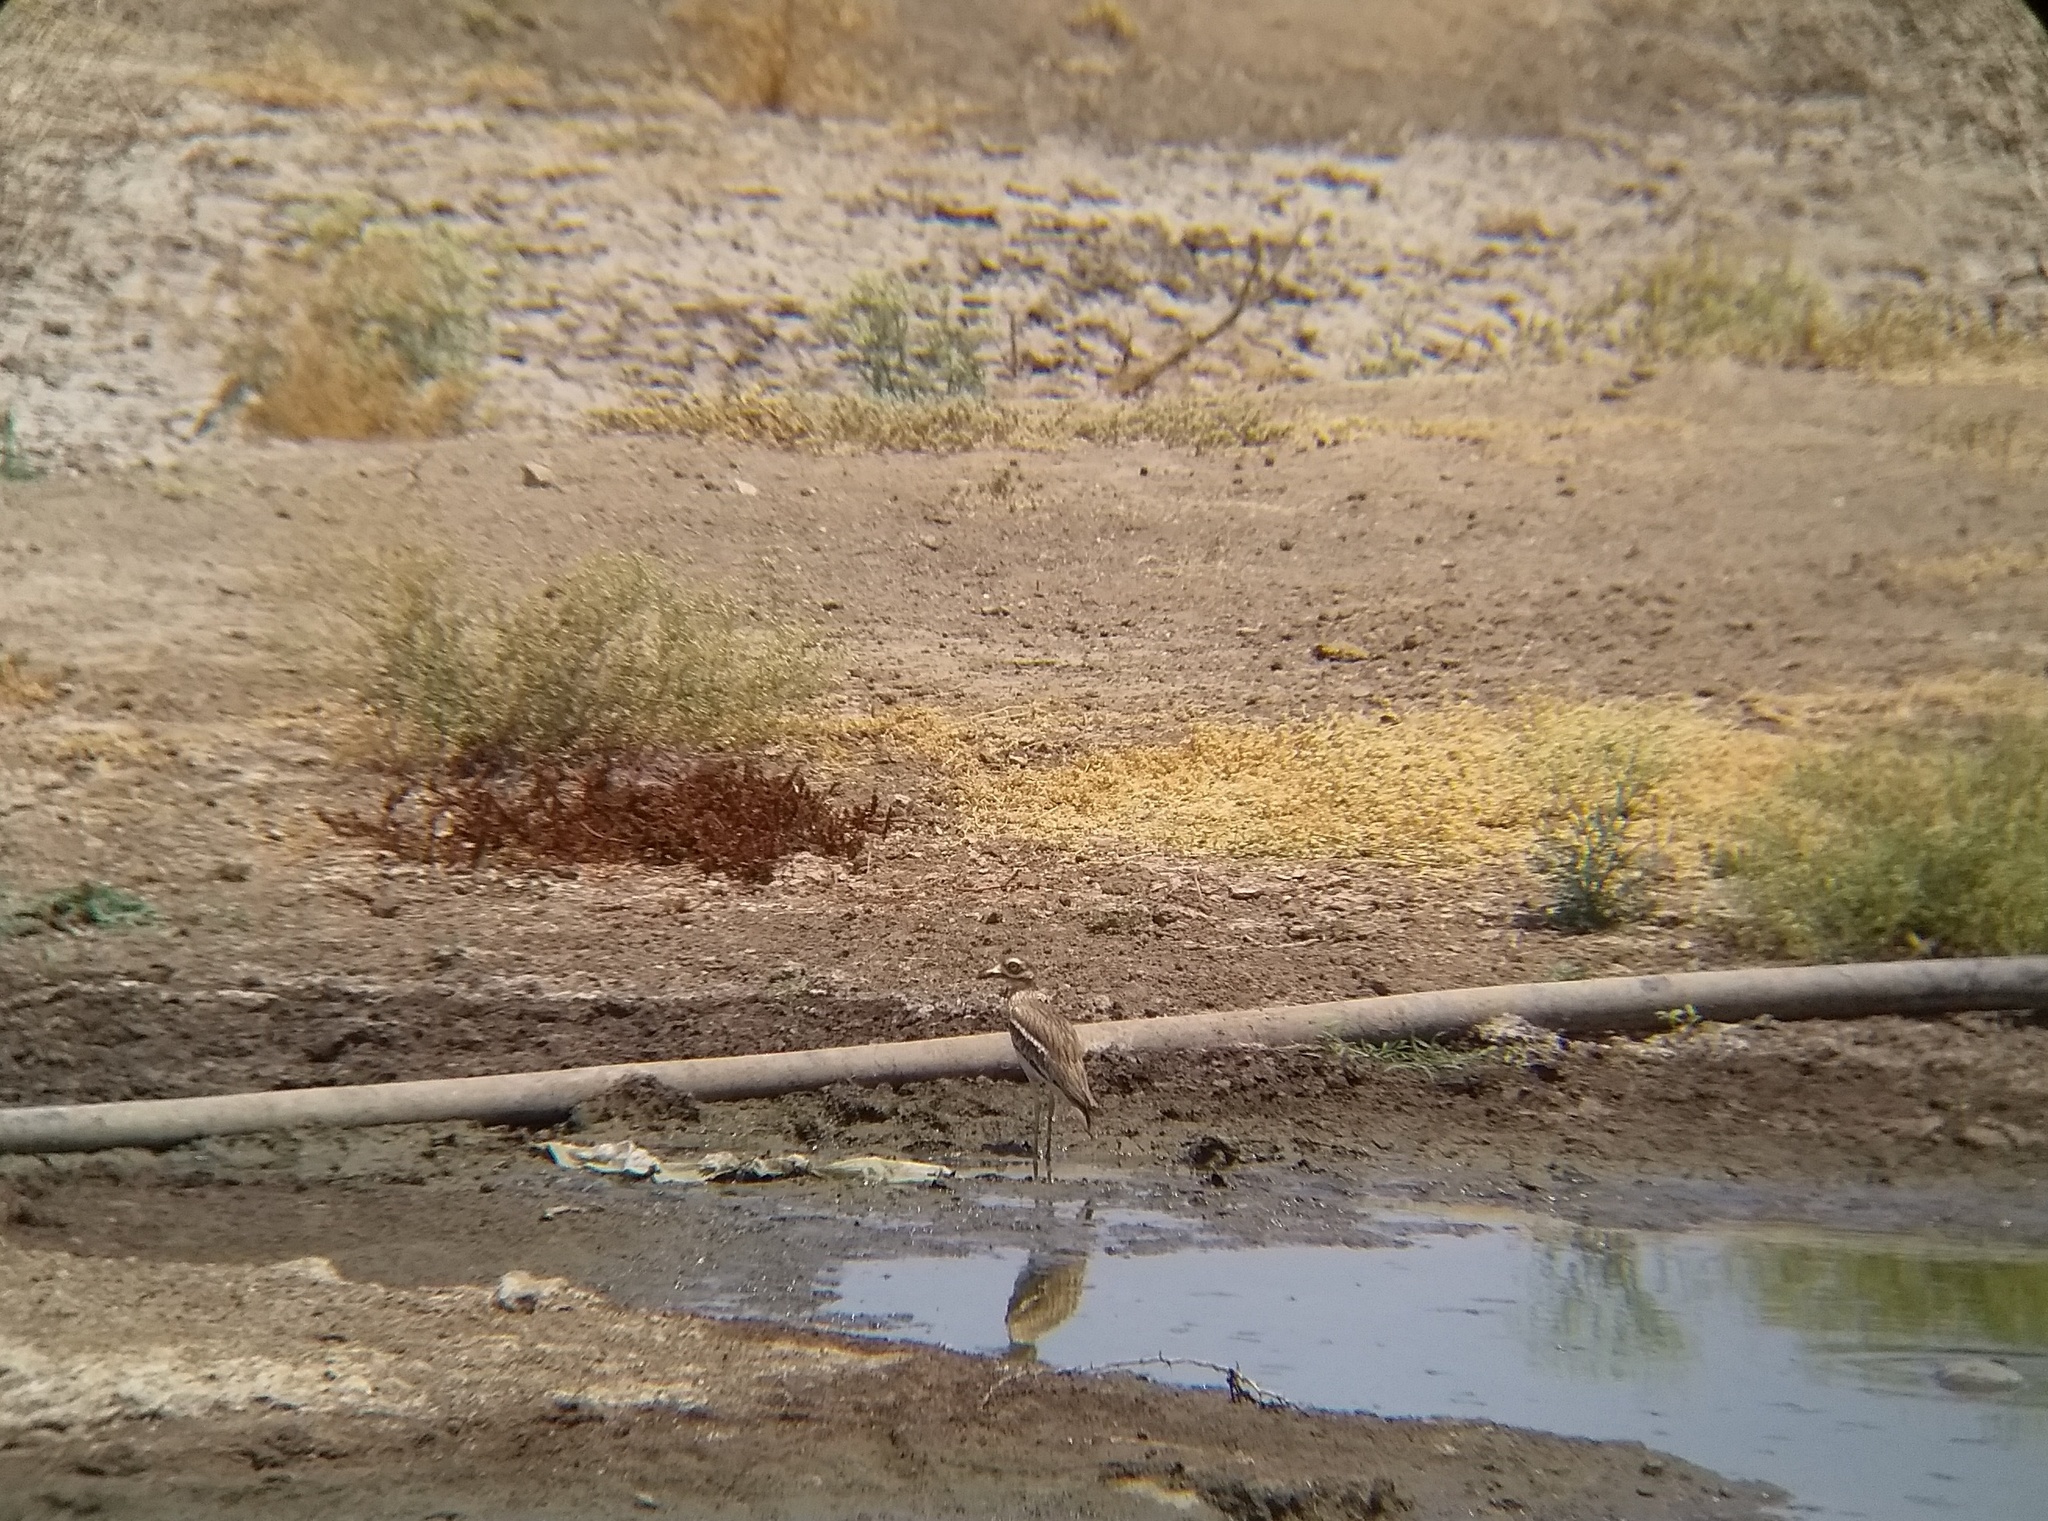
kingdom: Animalia
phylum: Chordata
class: Aves
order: Charadriiformes
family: Burhinidae
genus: Burhinus
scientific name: Burhinus indicus
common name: Indian thick-knee
